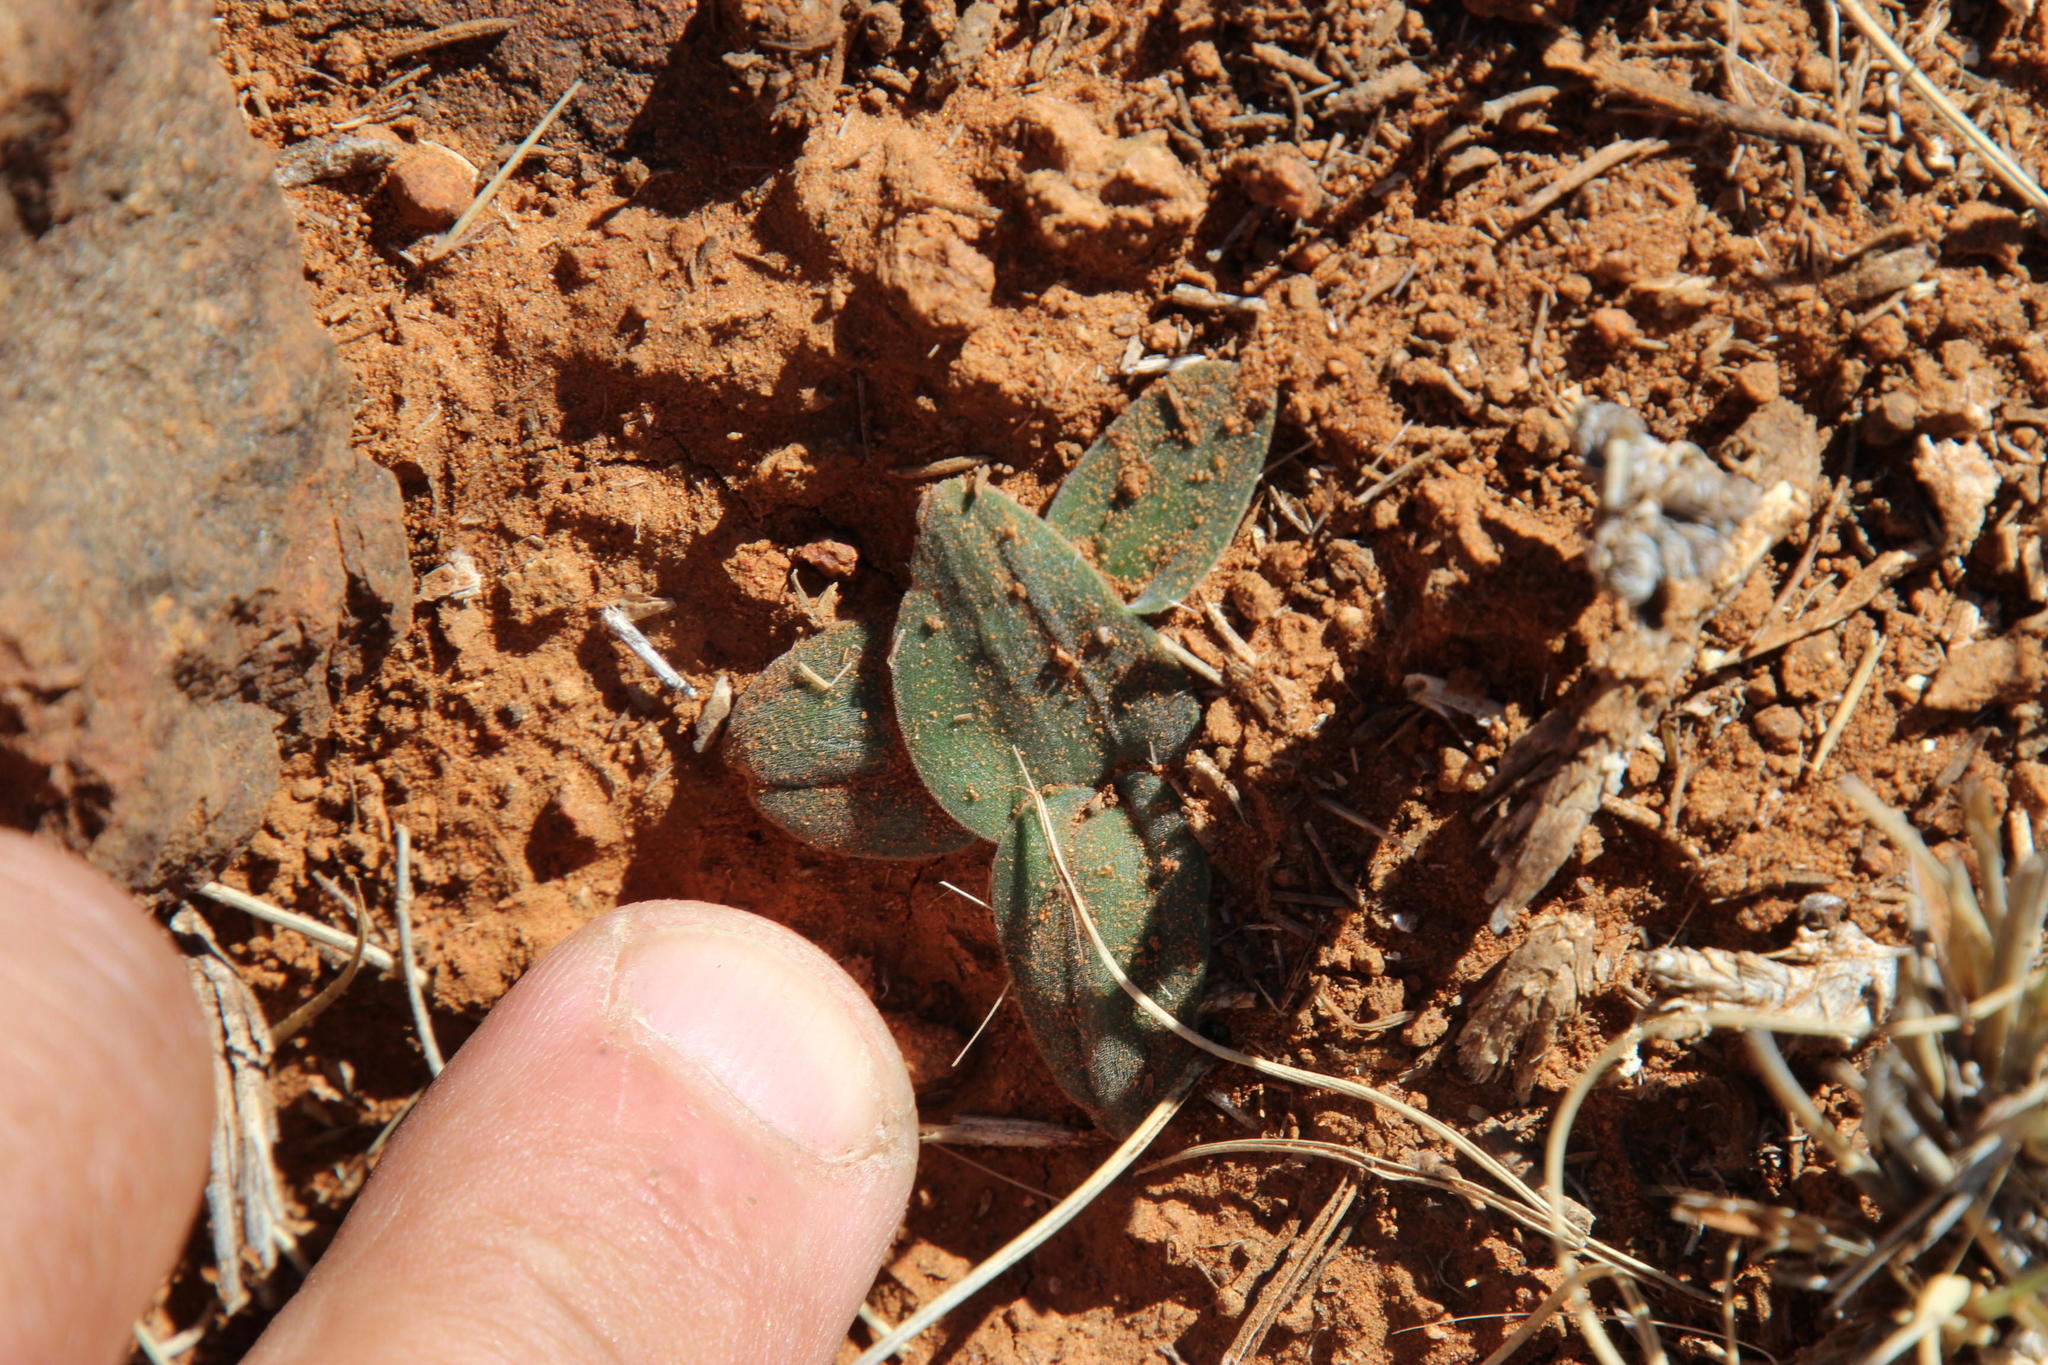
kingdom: Plantae
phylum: Tracheophyta
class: Liliopsida
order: Asparagales
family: Asparagaceae
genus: Drimia
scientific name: Drimia platyphylla
